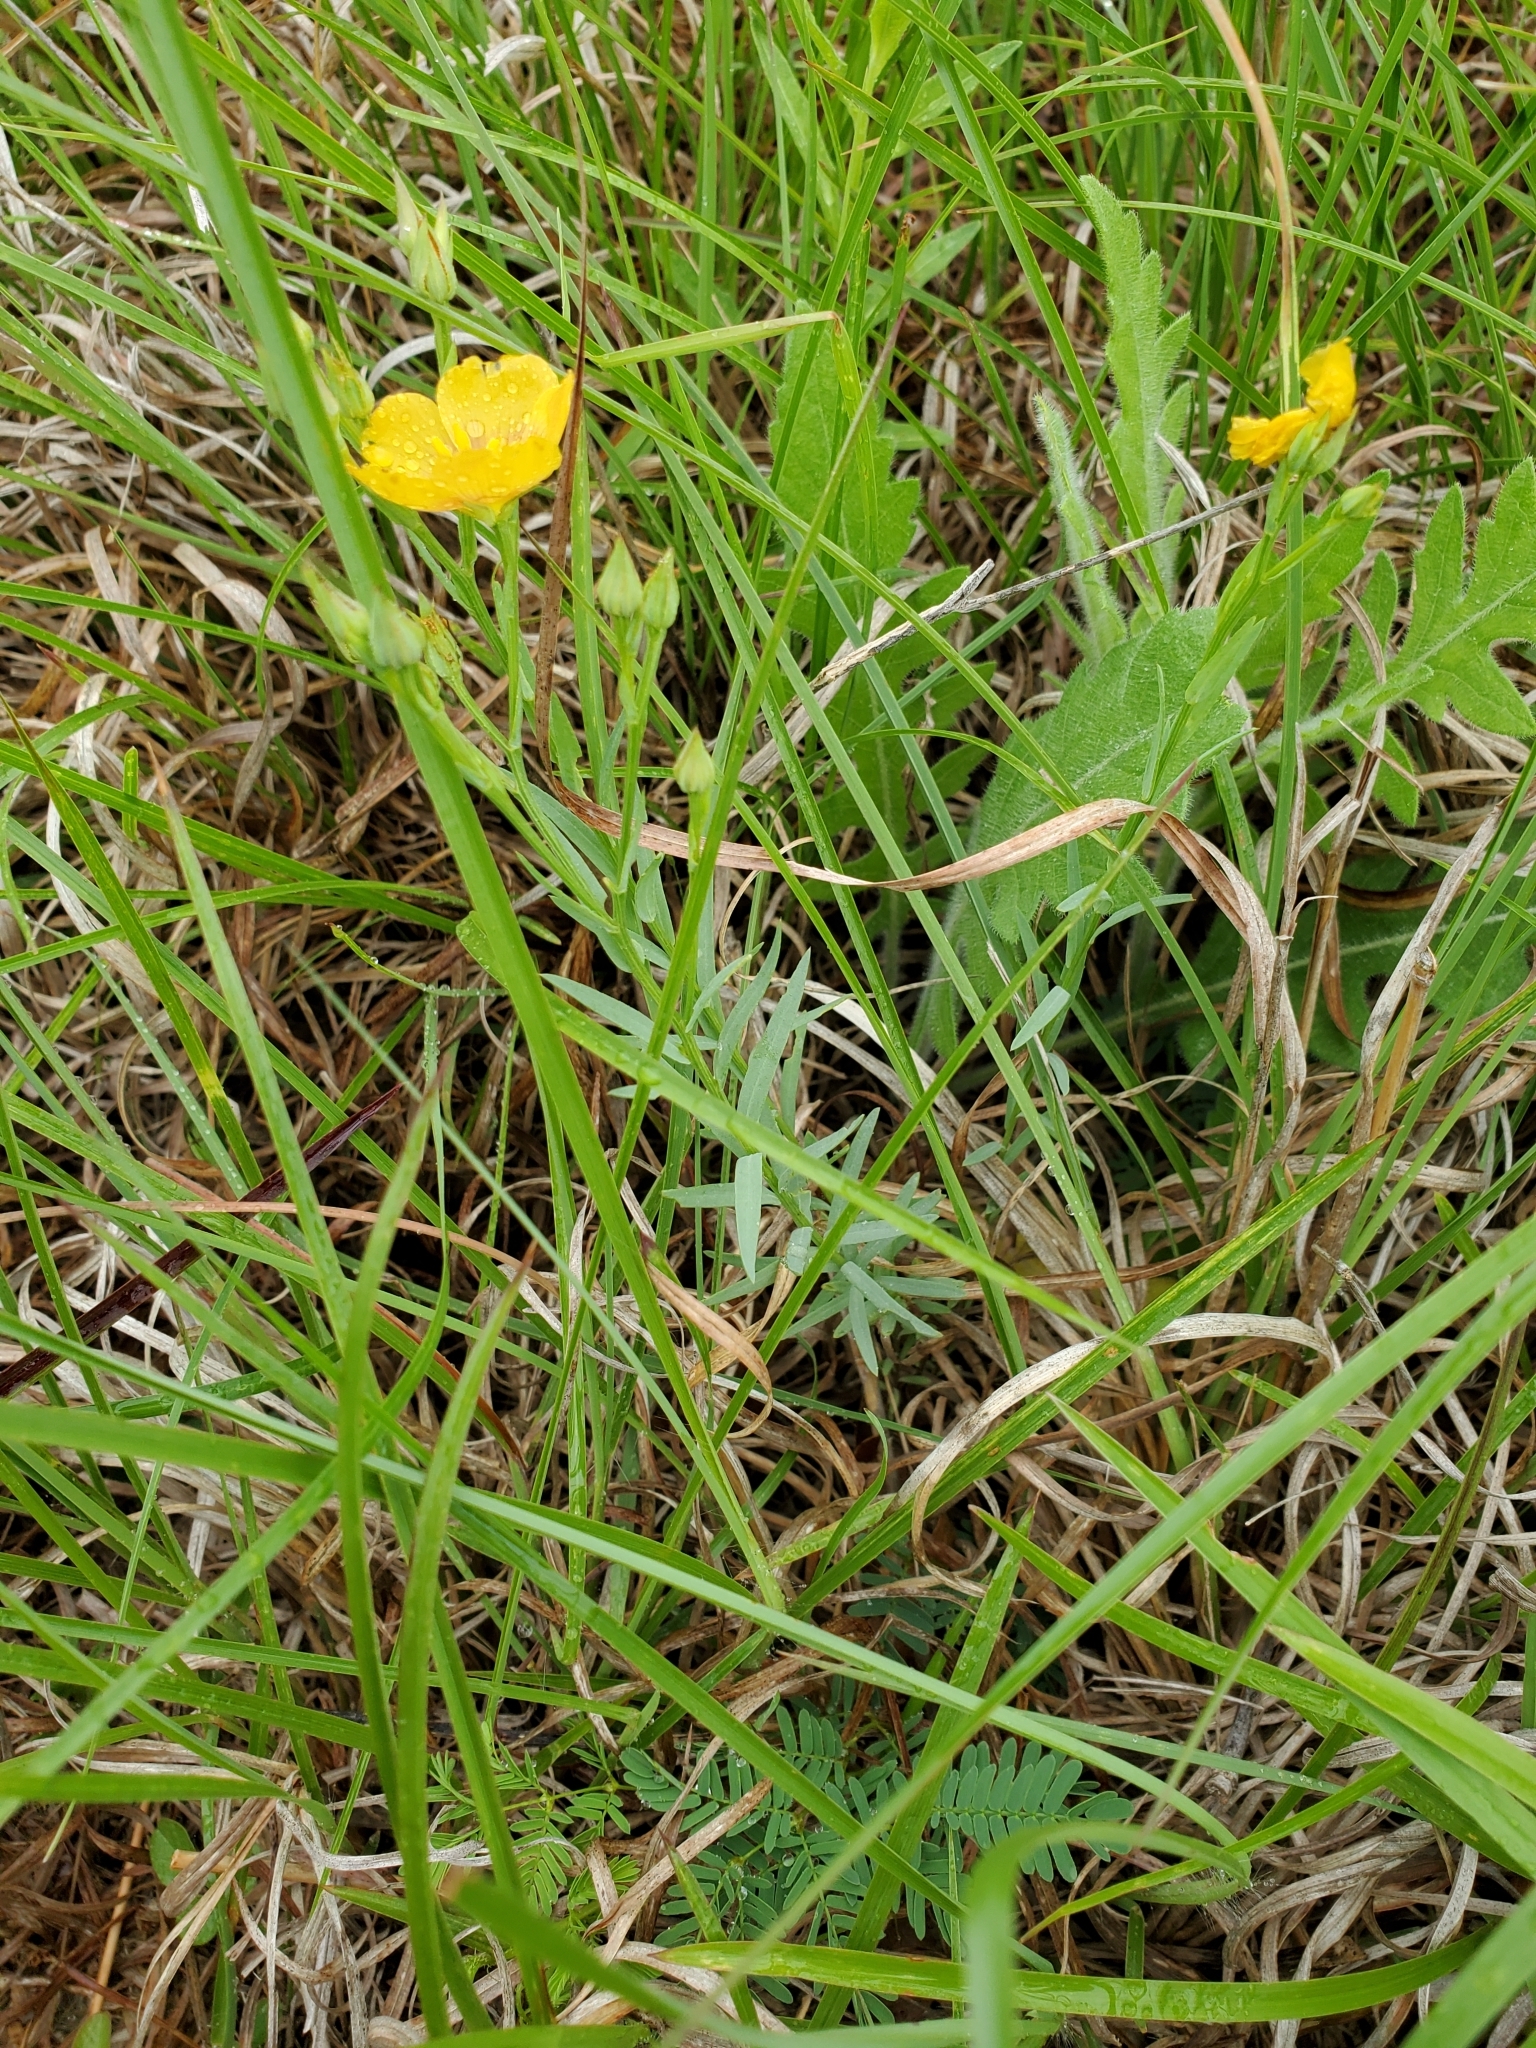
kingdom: Plantae
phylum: Tracheophyta
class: Magnoliopsida
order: Malpighiales
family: Linaceae
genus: Linum
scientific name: Linum rigidum
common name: Stiff-stem flax
